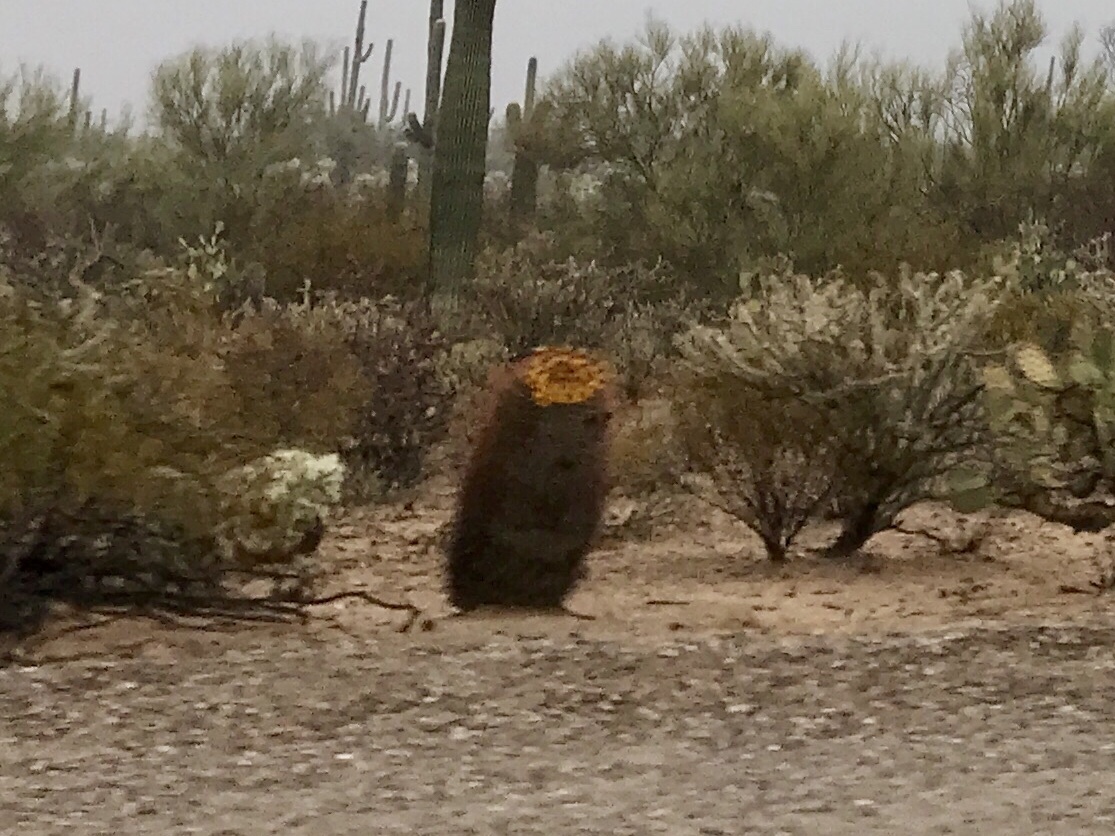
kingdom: Plantae
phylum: Tracheophyta
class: Magnoliopsida
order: Caryophyllales
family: Cactaceae
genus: Ferocactus
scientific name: Ferocactus wislizeni
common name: Candy barrel cactus
